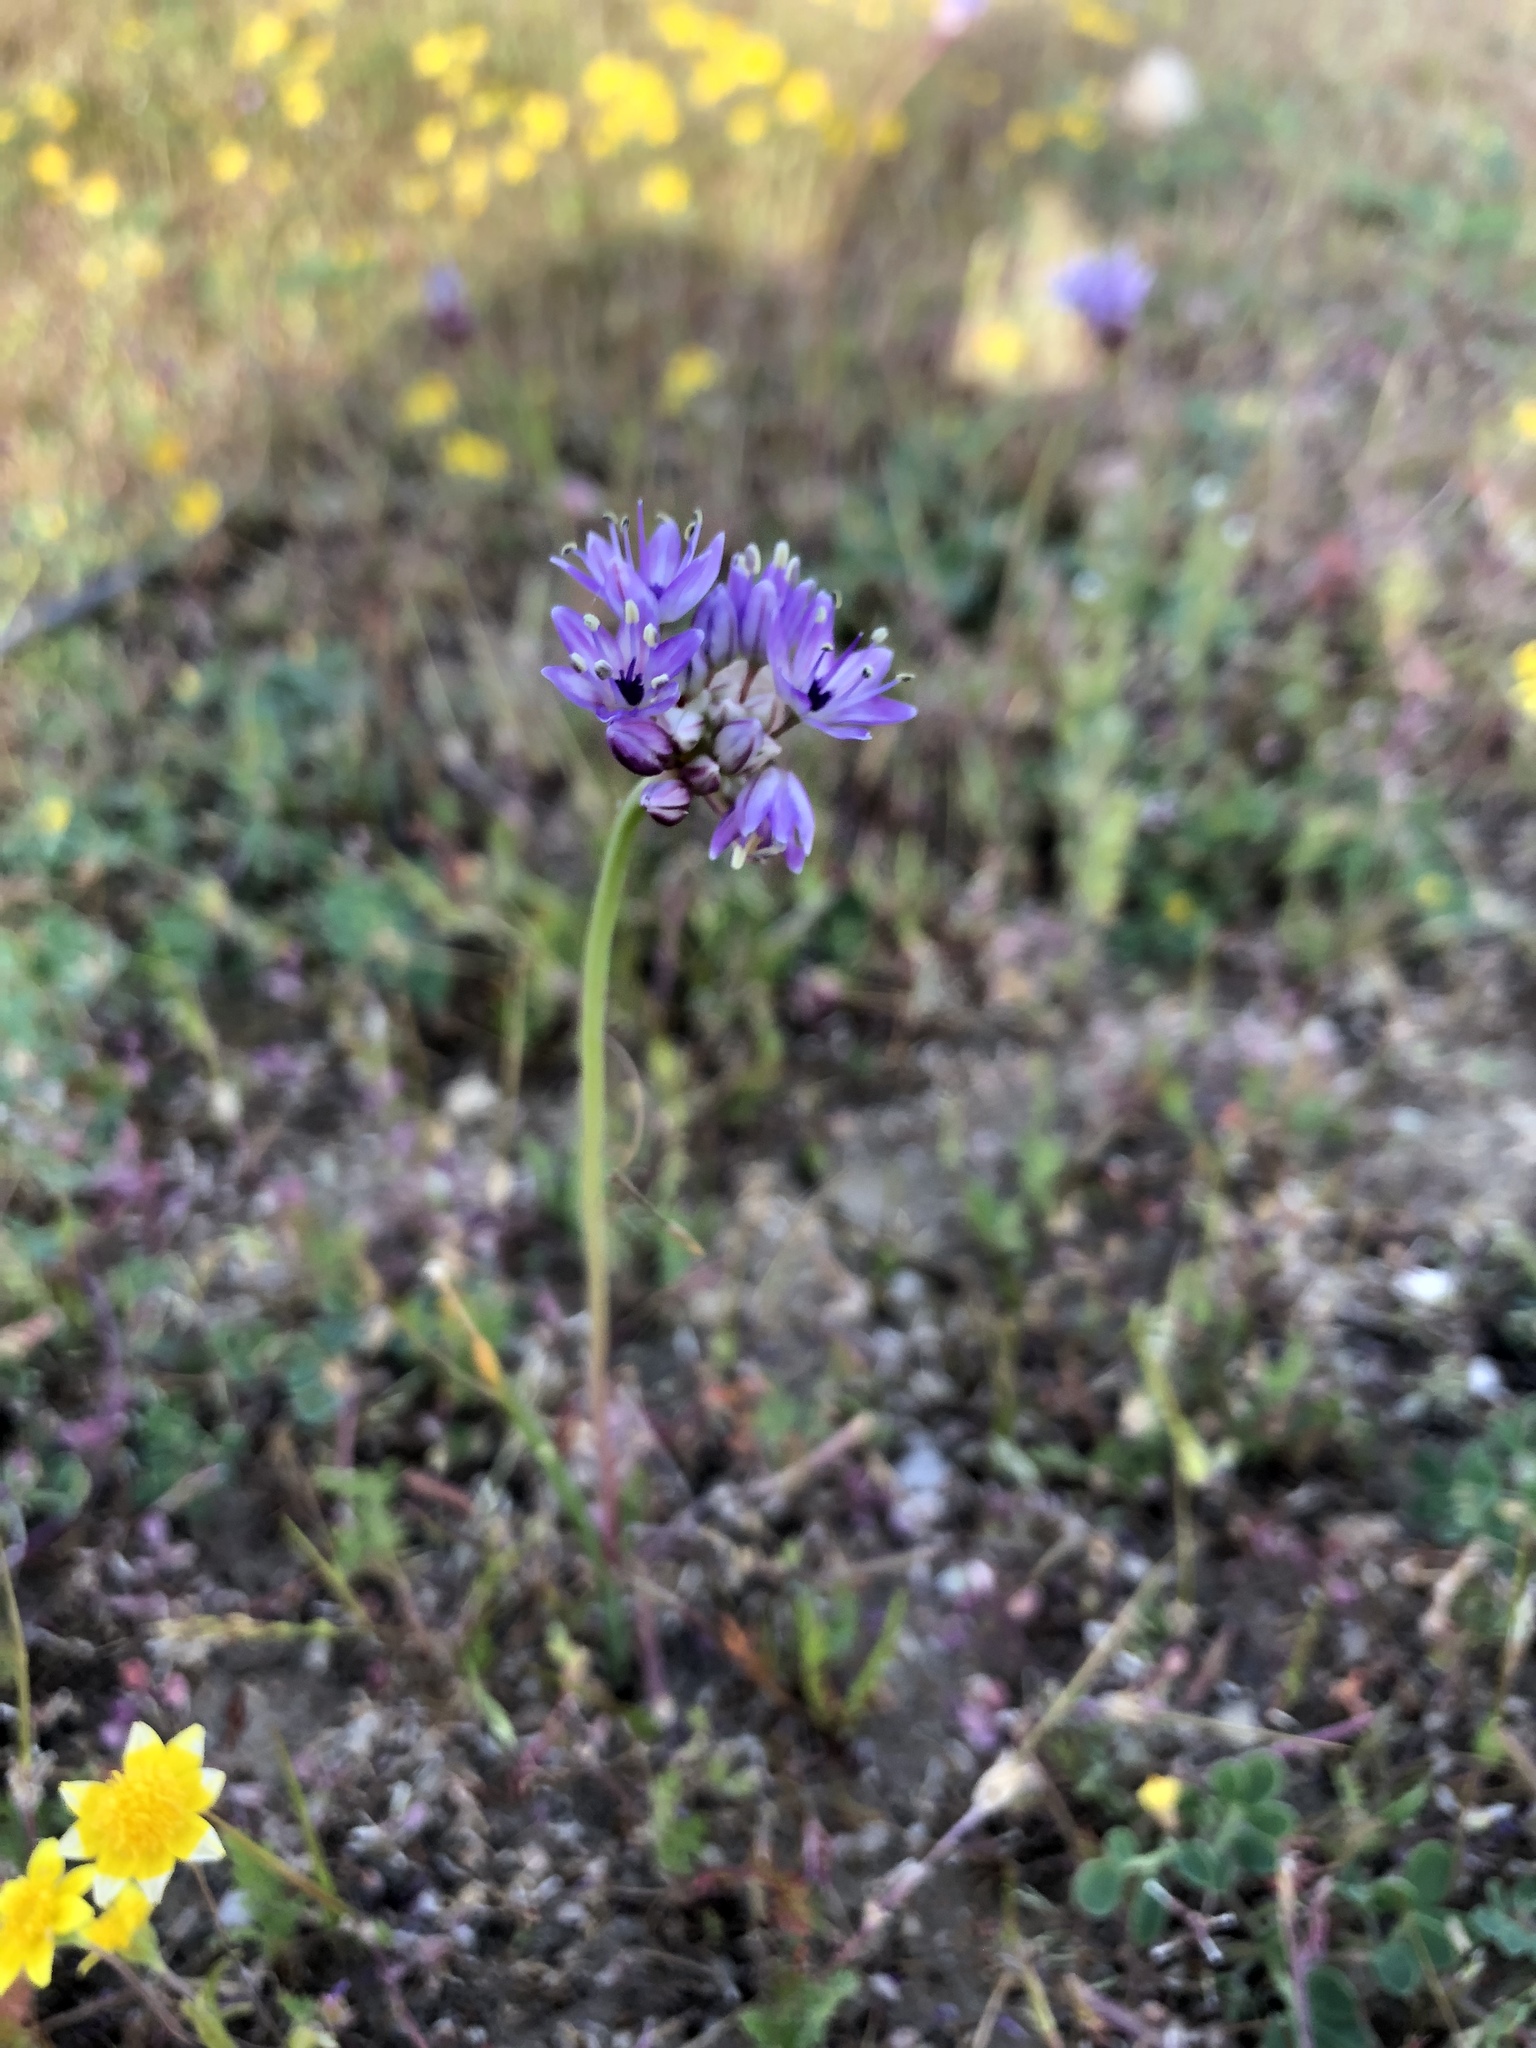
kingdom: Plantae
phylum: Tracheophyta
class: Liliopsida
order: Asparagales
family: Amaryllidaceae
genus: Allium
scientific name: Allium howellii
